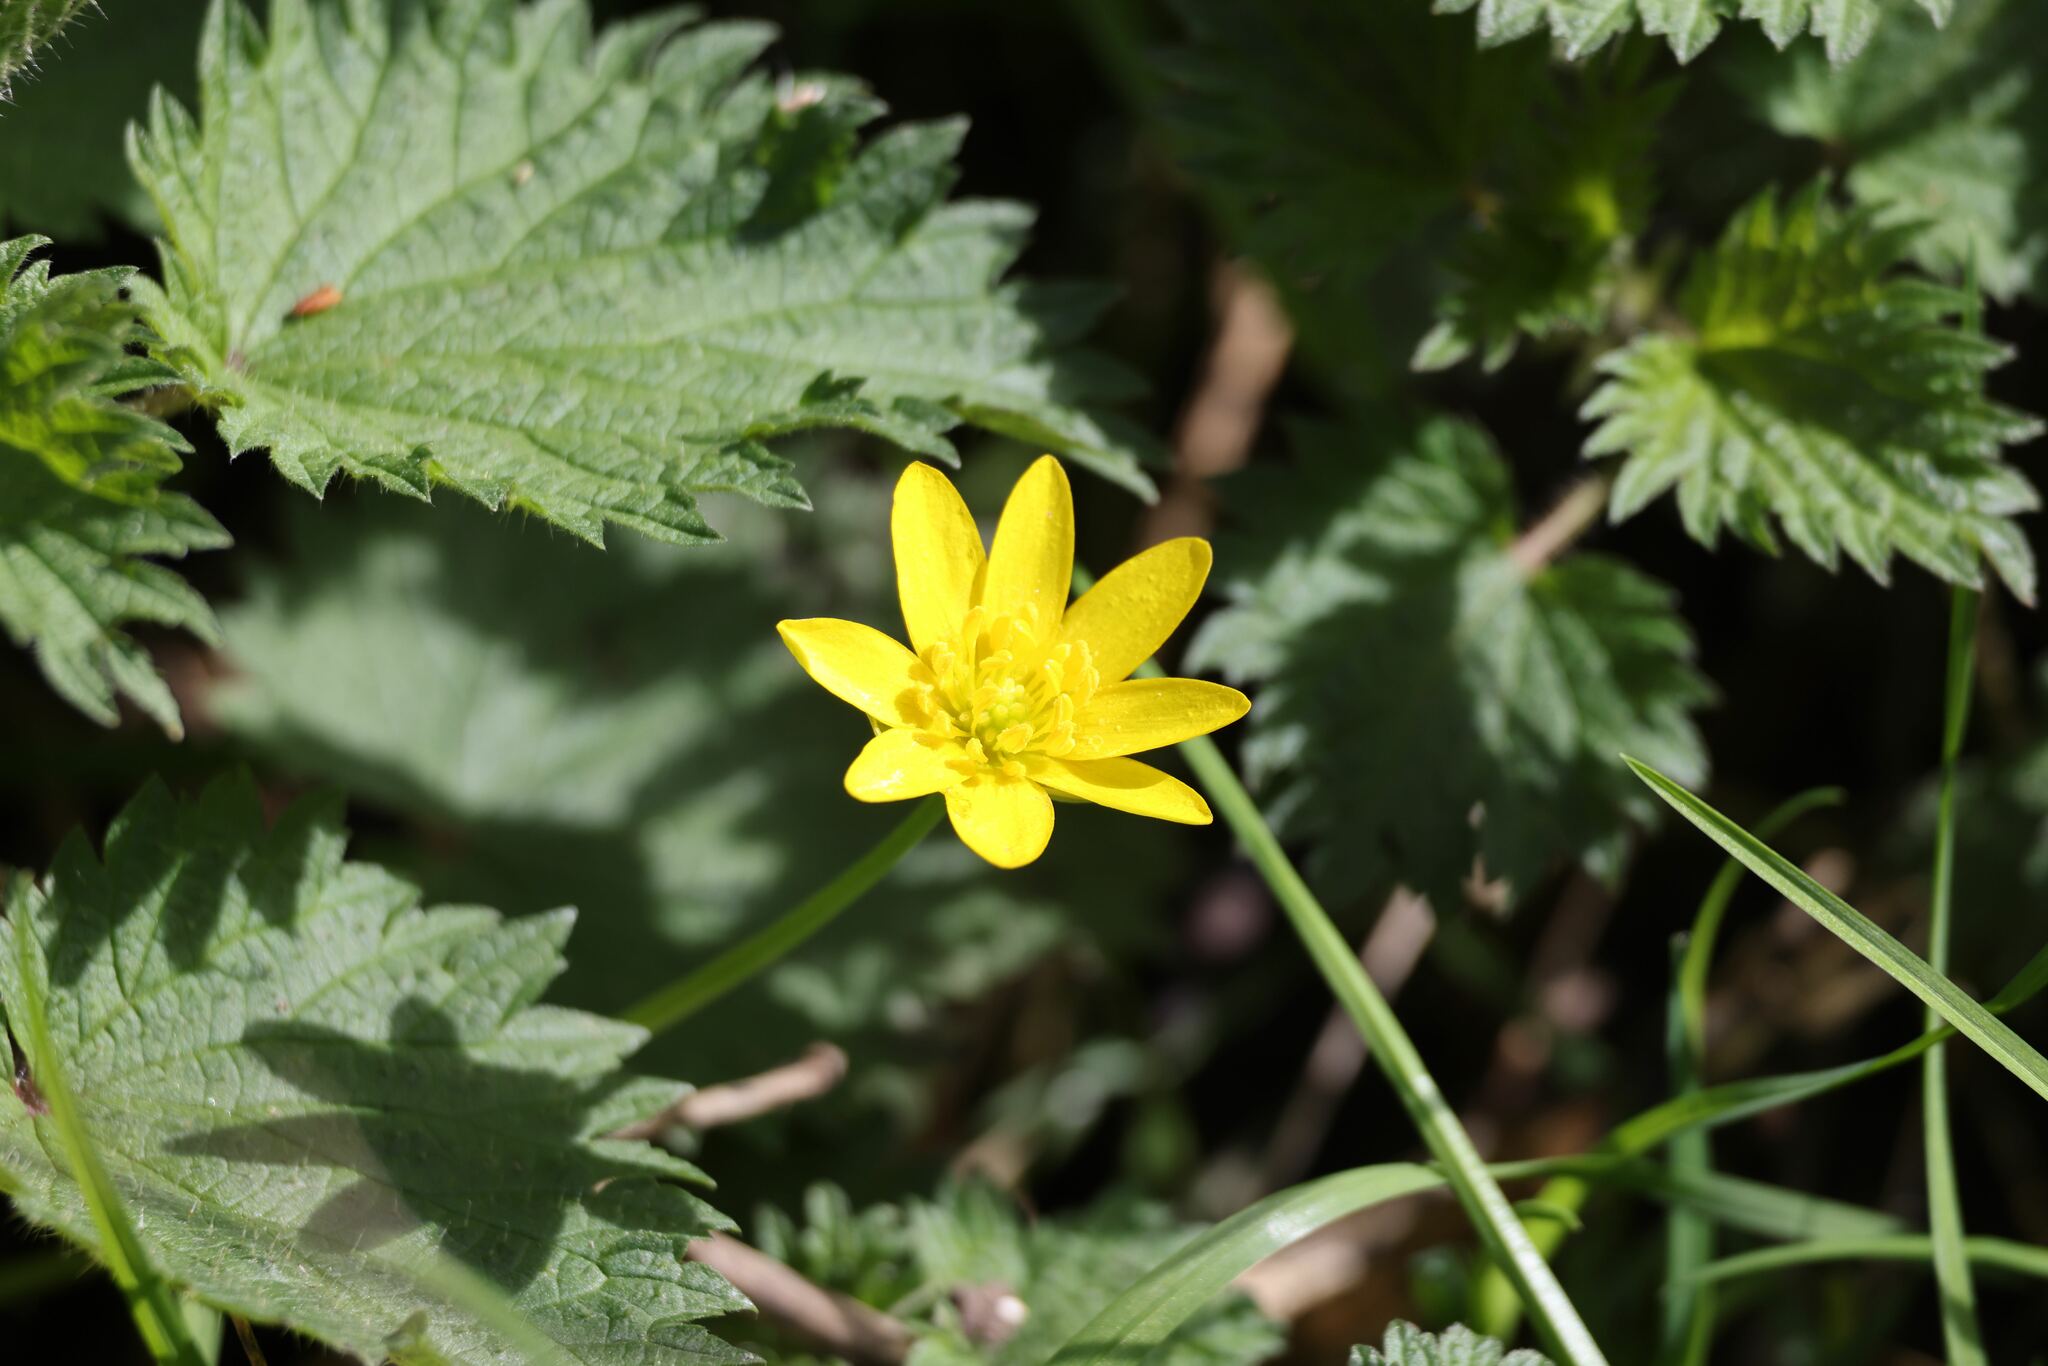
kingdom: Plantae
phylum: Tracheophyta
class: Magnoliopsida
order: Ranunculales
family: Ranunculaceae
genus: Ficaria
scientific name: Ficaria verna
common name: Lesser celandine
